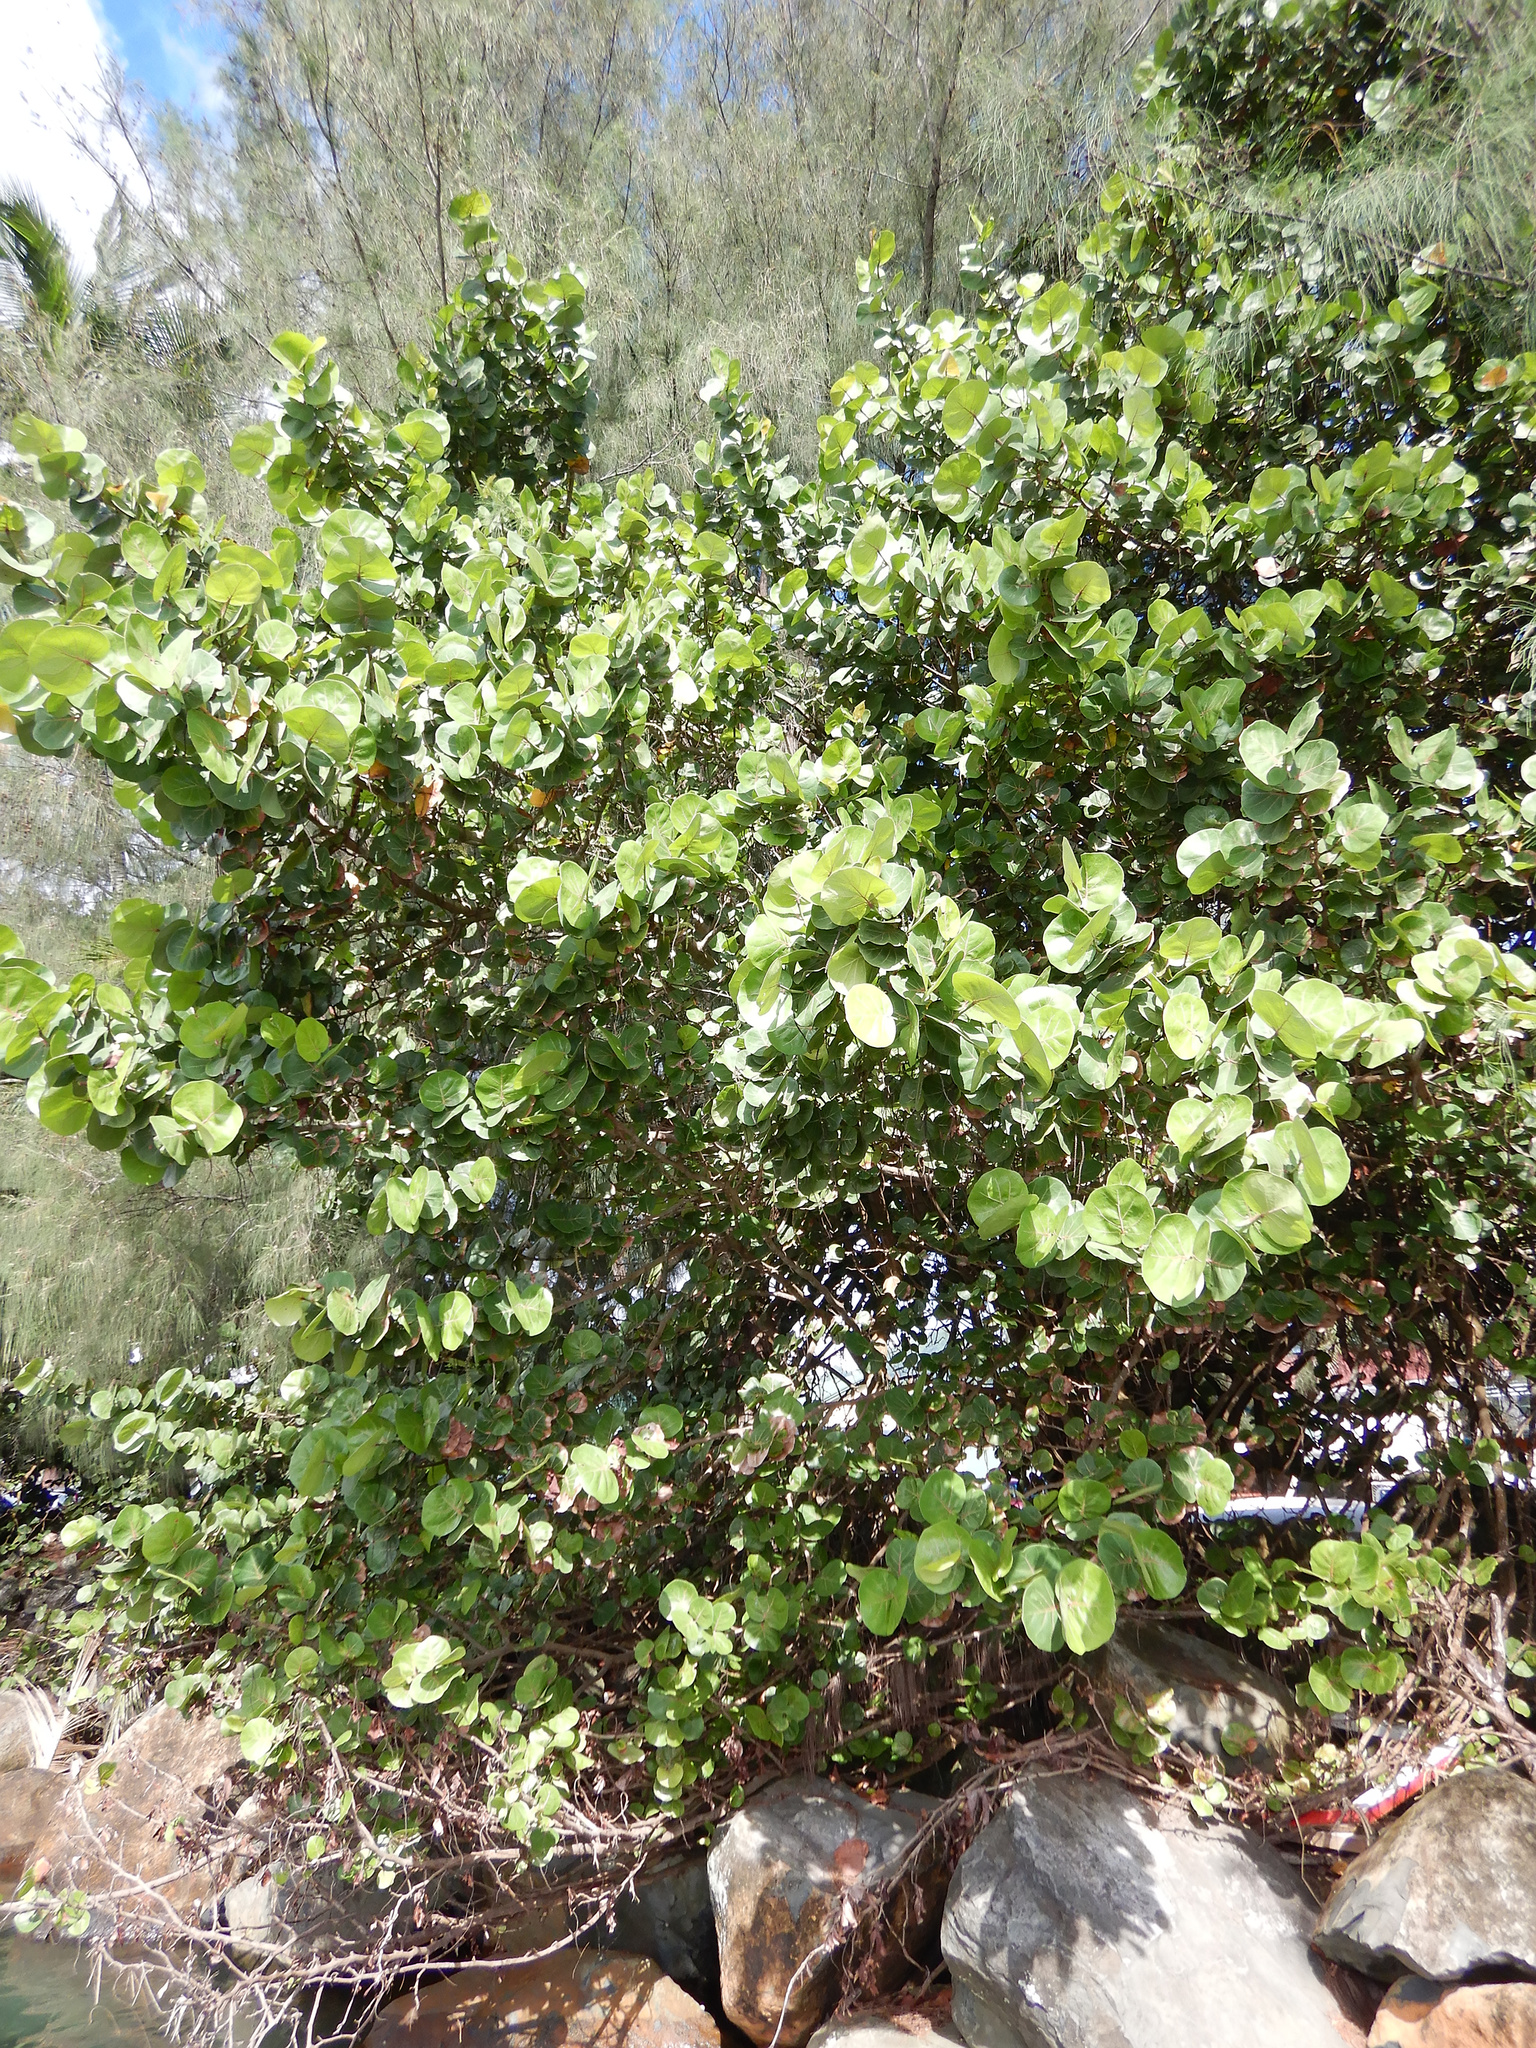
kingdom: Plantae
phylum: Tracheophyta
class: Magnoliopsida
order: Caryophyllales
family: Polygonaceae
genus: Coccoloba
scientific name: Coccoloba uvifera
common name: Seagrape
